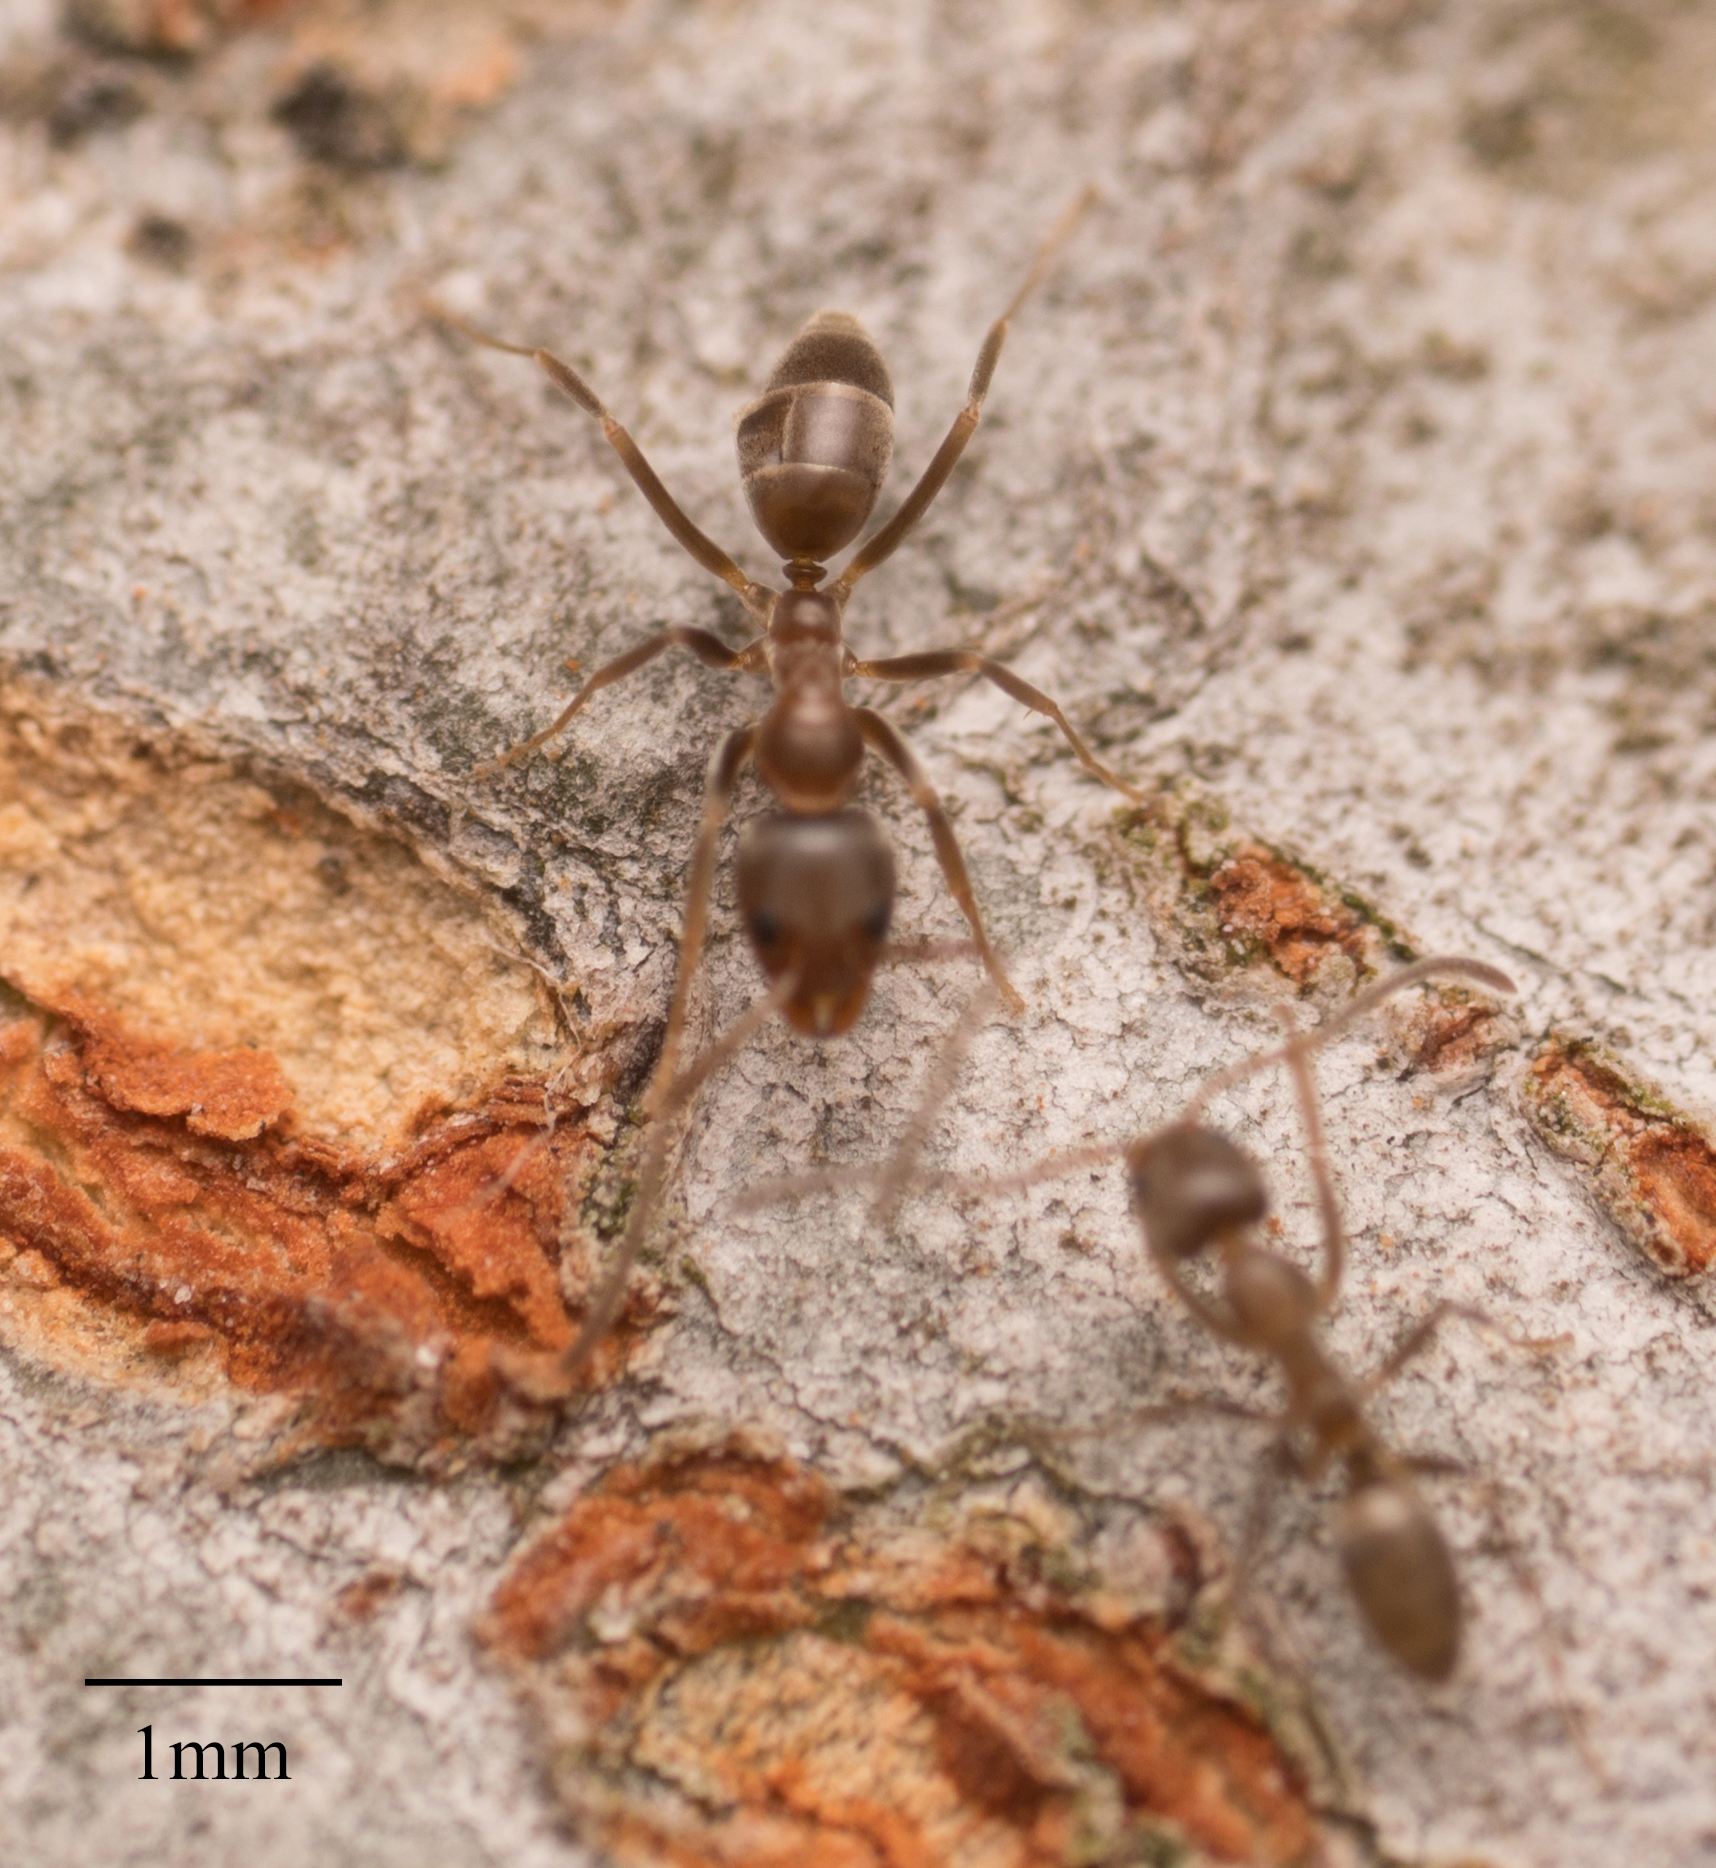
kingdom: Animalia
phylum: Arthropoda
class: Insecta
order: Hymenoptera
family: Formicidae
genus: Linepithema
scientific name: Linepithema humile
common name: Argentine ant
